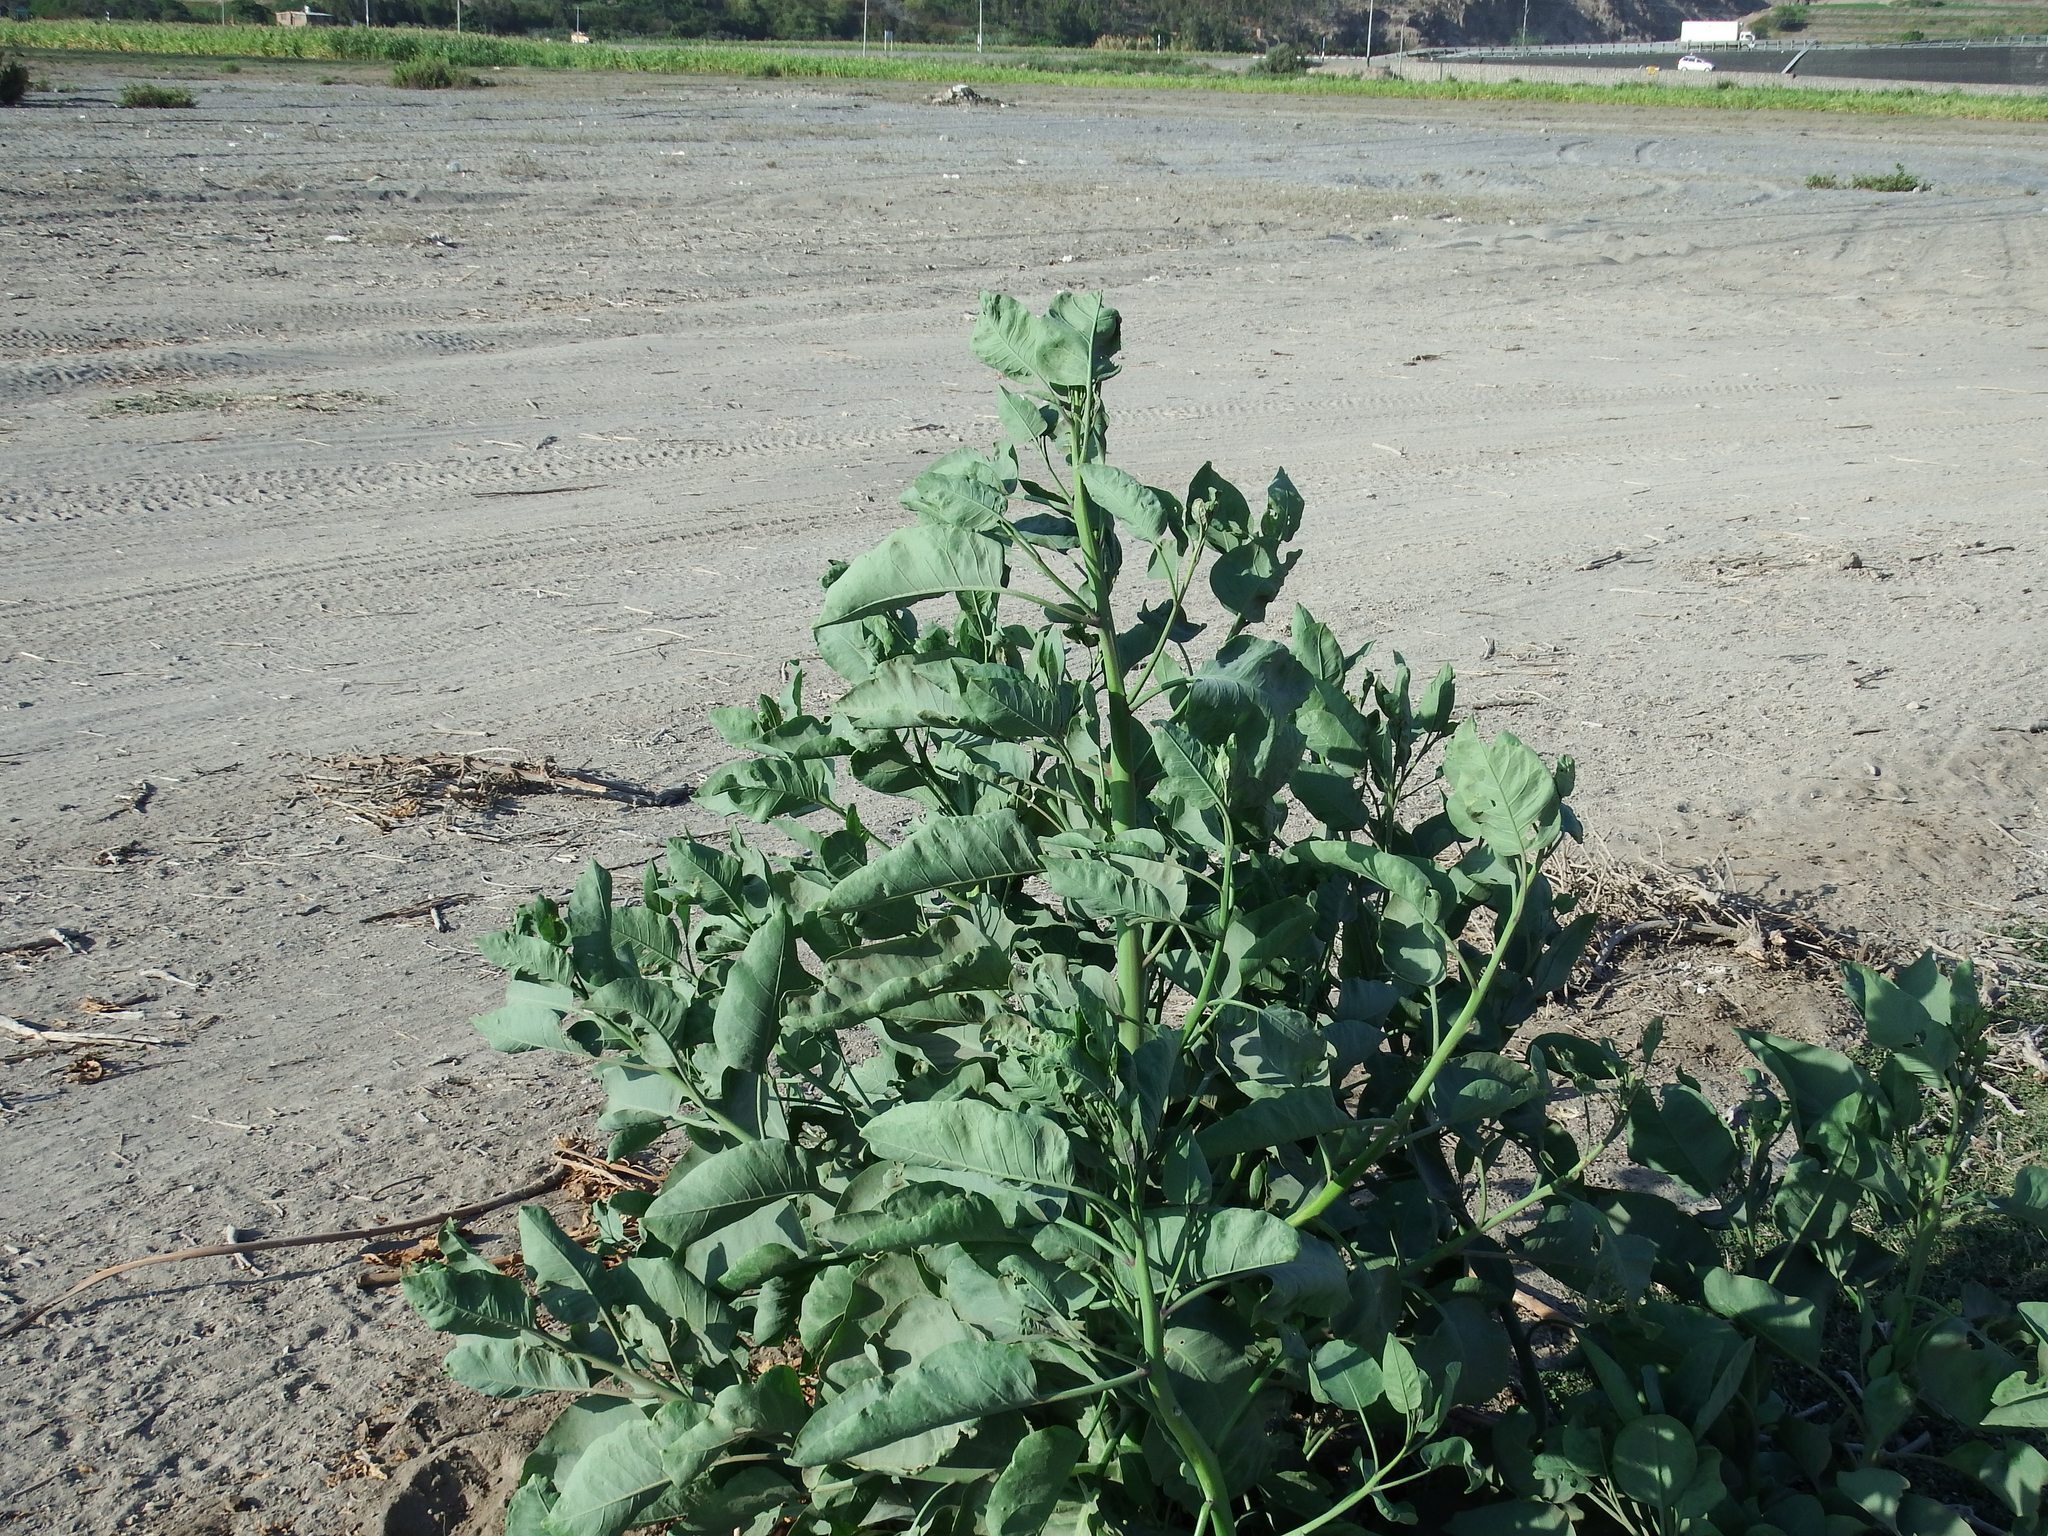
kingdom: Plantae
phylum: Tracheophyta
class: Magnoliopsida
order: Solanales
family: Solanaceae
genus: Nicotiana
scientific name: Nicotiana glauca
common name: Tree tobacco
